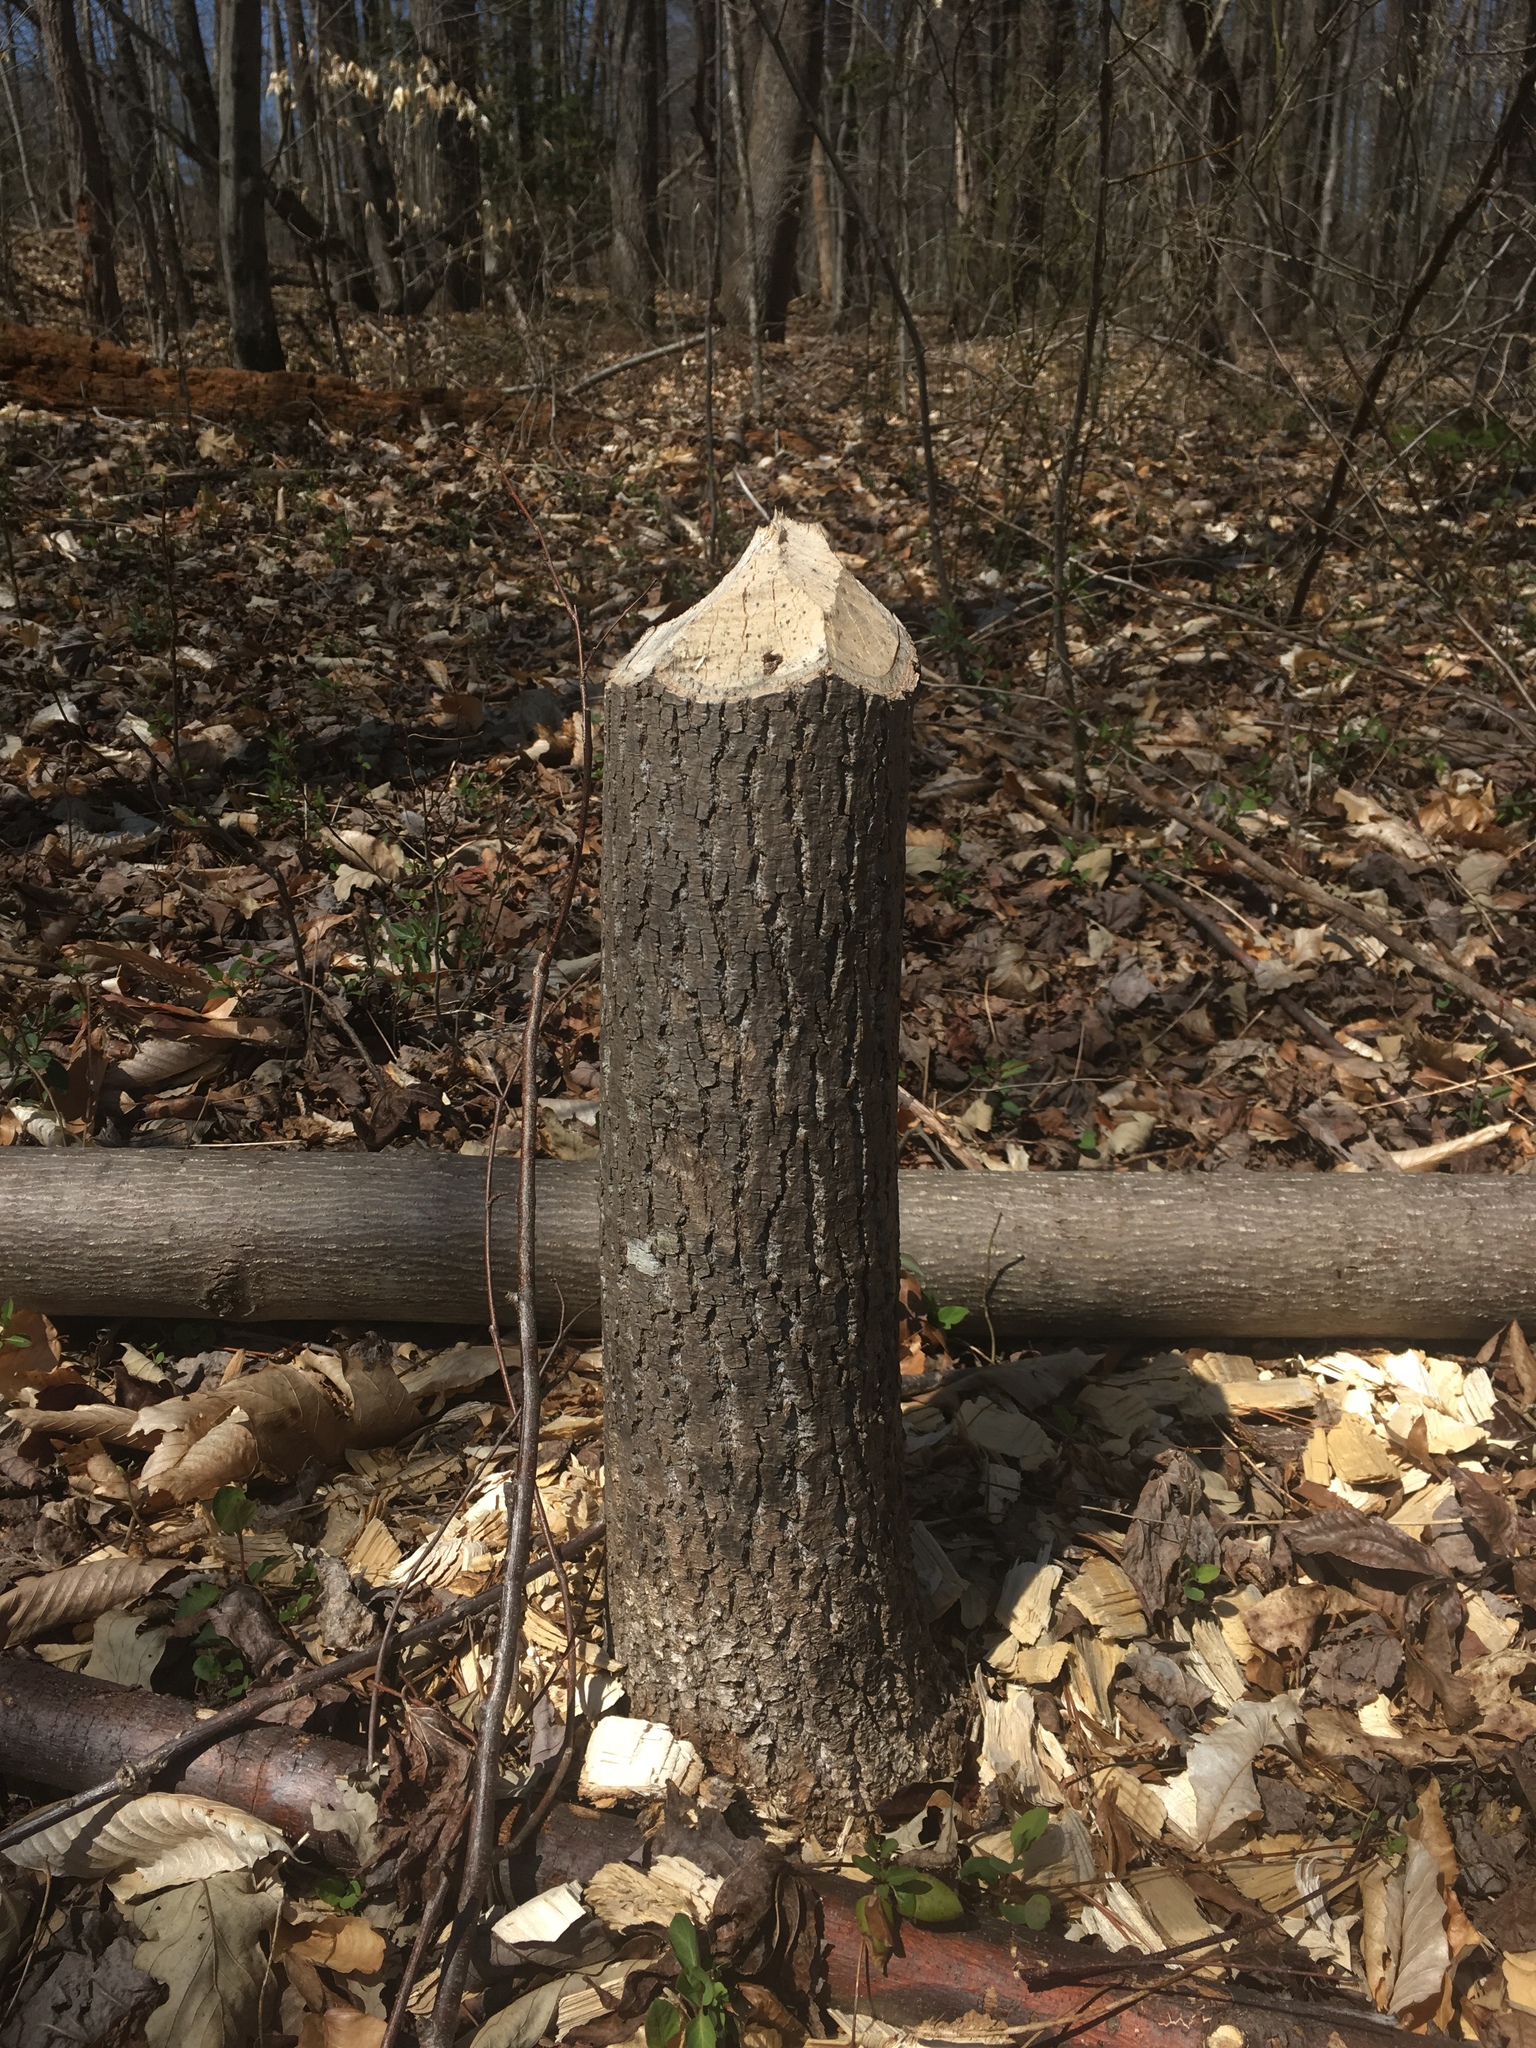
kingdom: Animalia
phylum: Chordata
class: Mammalia
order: Rodentia
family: Castoridae
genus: Castor
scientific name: Castor canadensis
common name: American beaver
